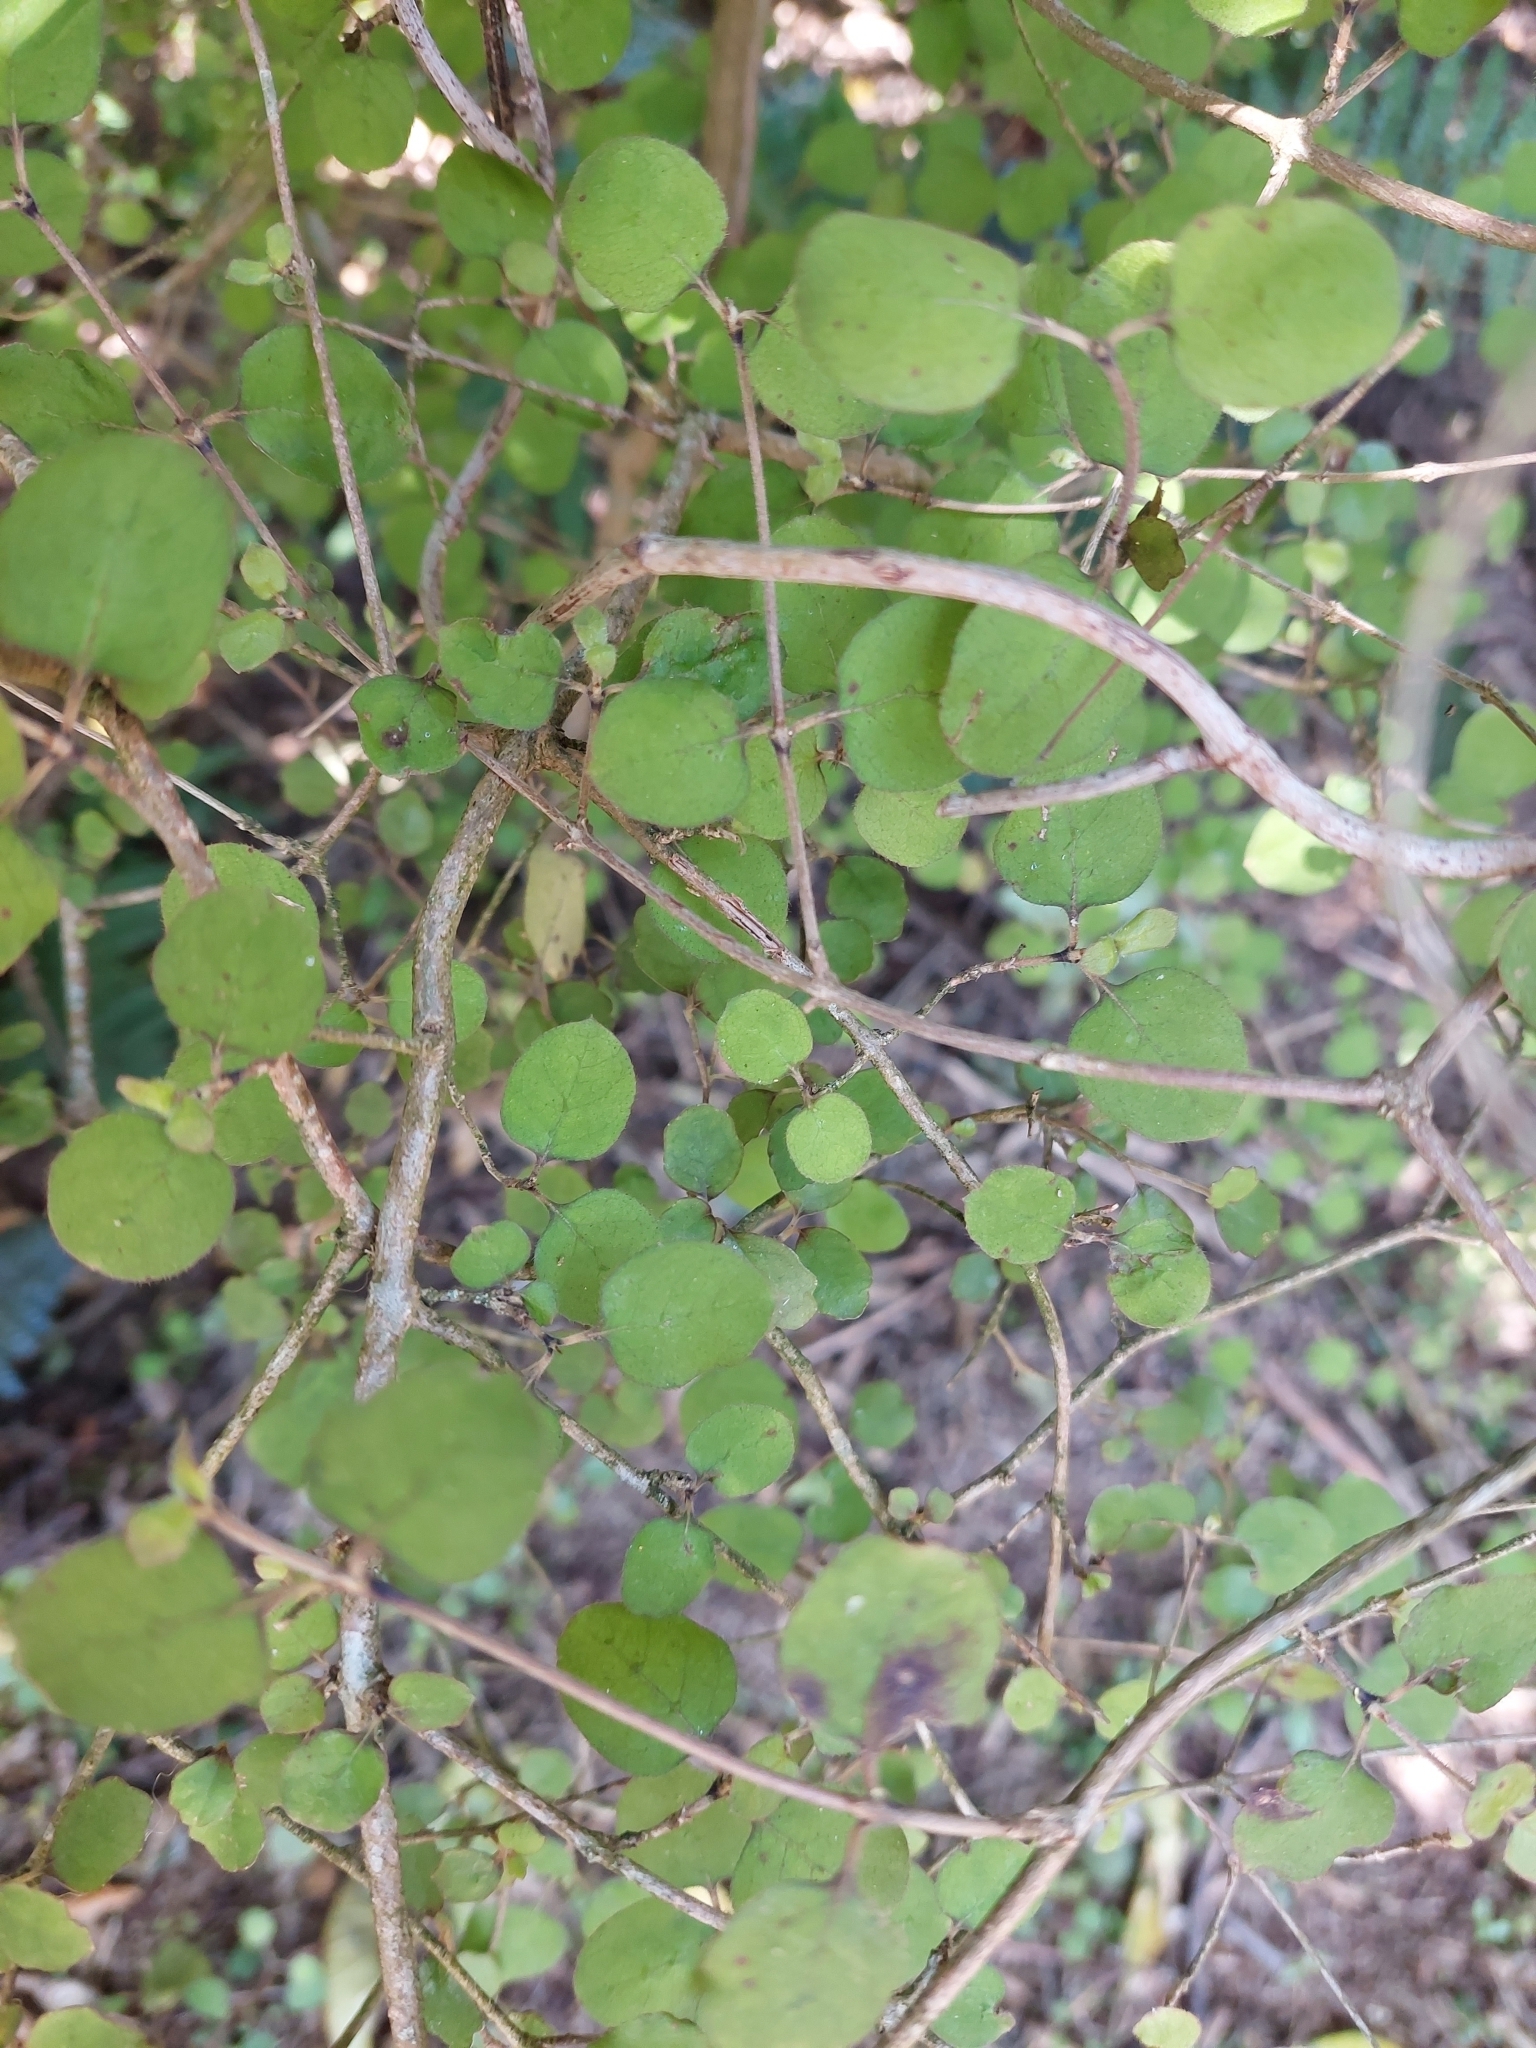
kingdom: Plantae
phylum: Tracheophyta
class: Magnoliopsida
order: Gentianales
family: Rubiaceae
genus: Coprosma
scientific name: Coprosma rotundifolia
